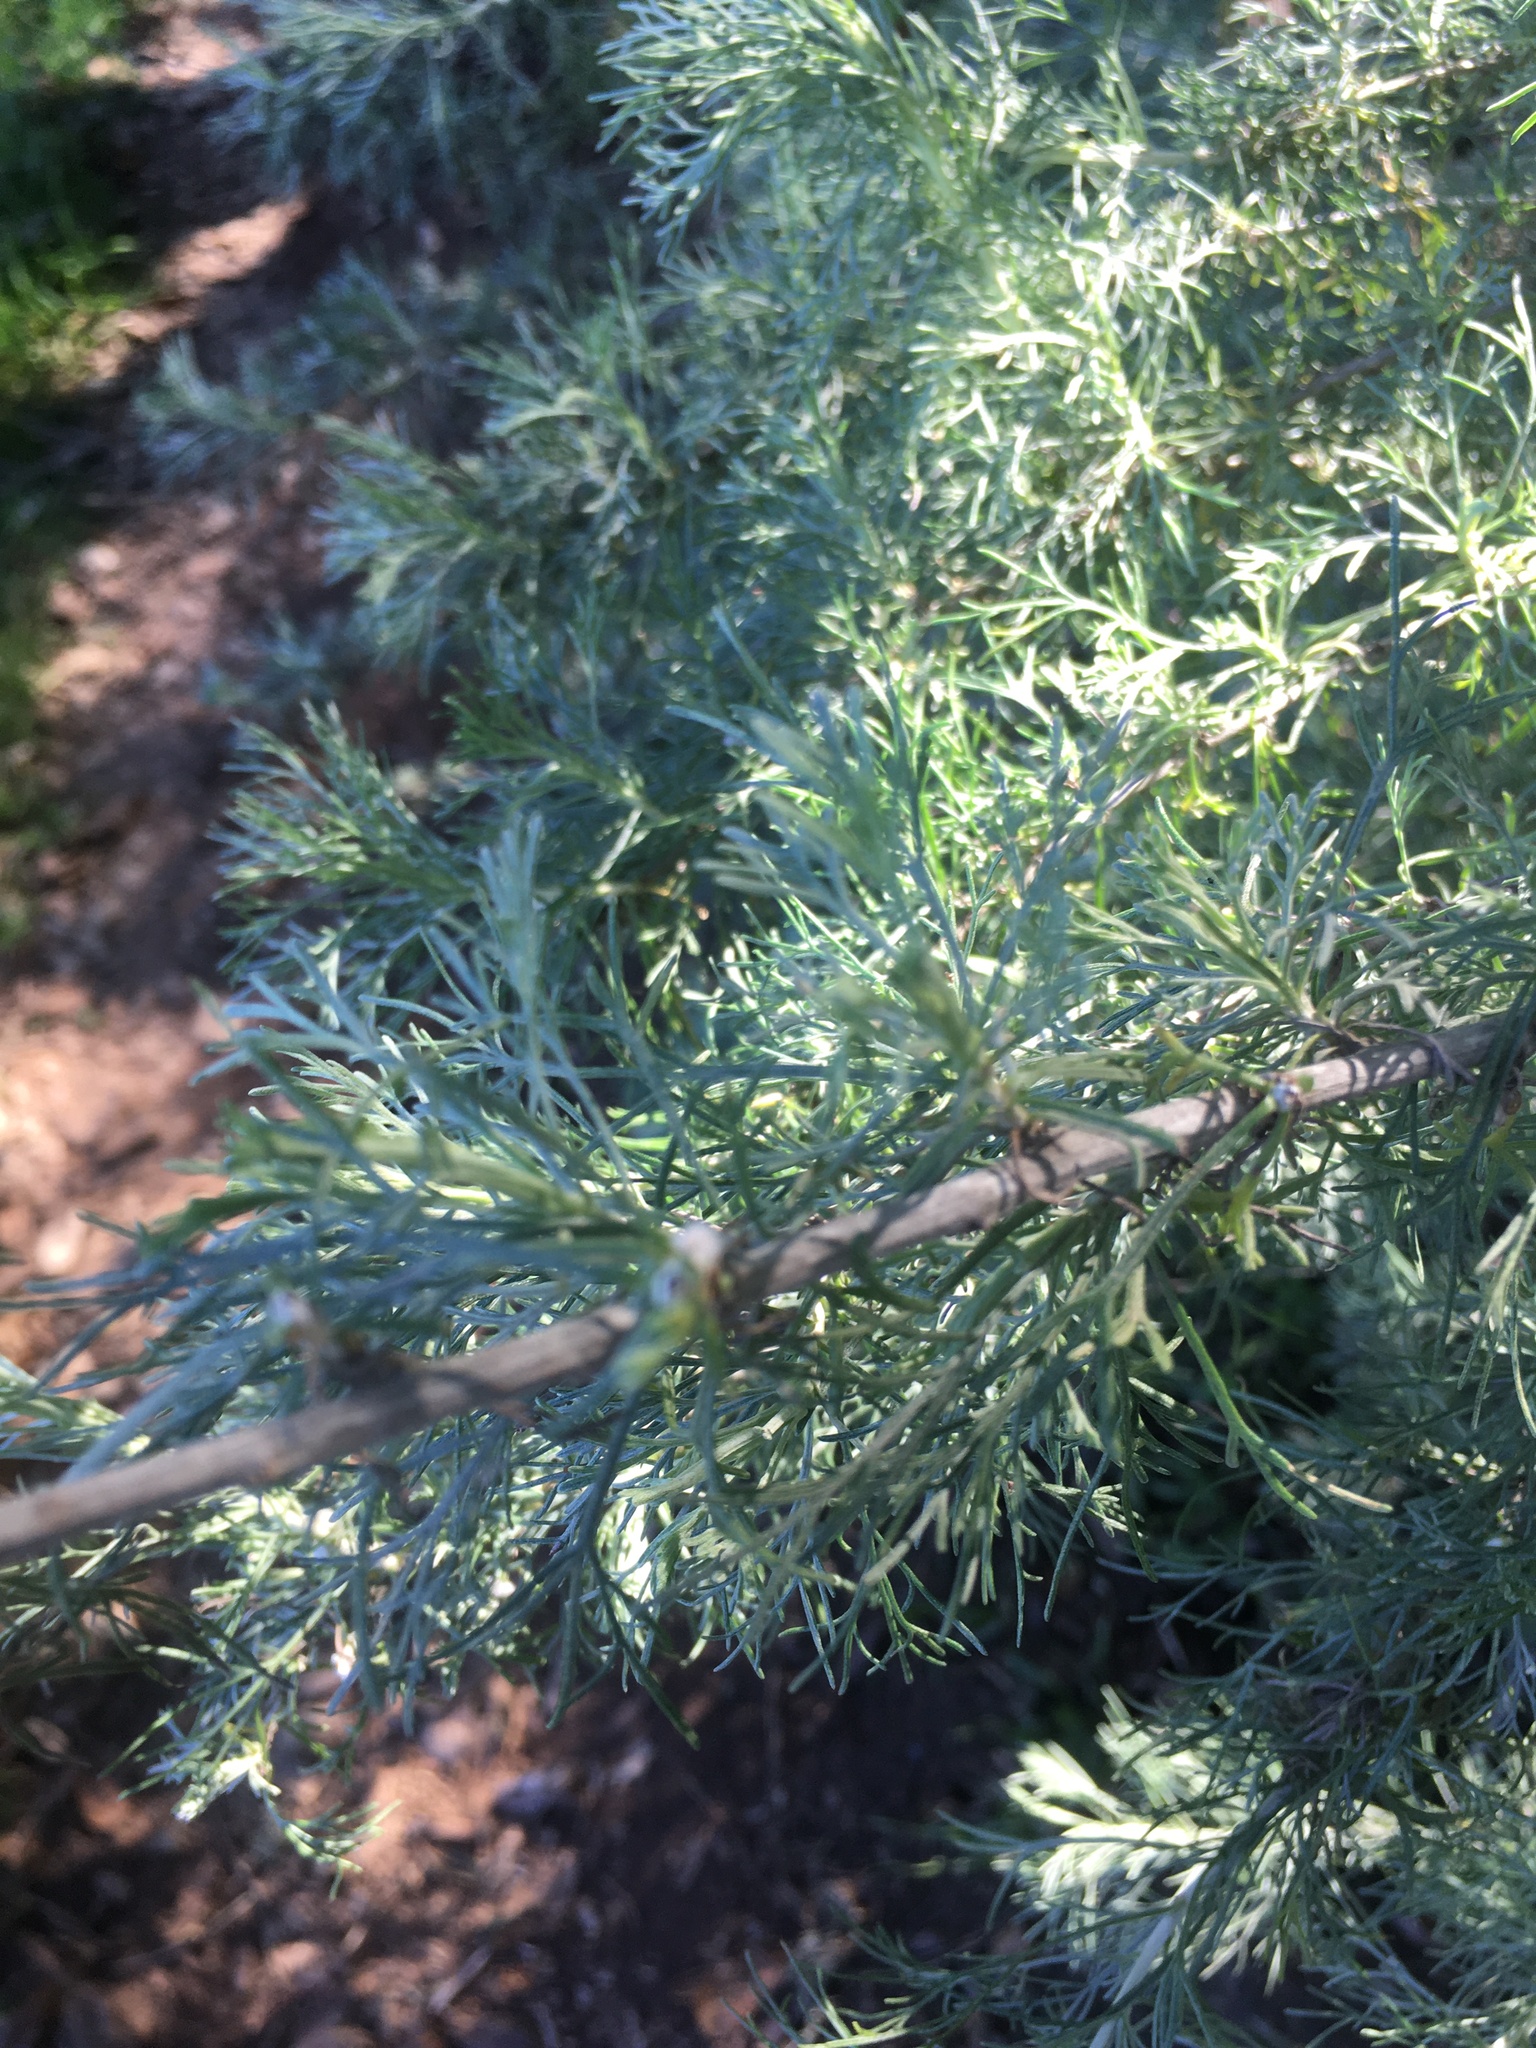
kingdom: Plantae
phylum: Tracheophyta
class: Magnoliopsida
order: Asterales
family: Asteraceae
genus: Artemisia
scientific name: Artemisia californica
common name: California sagebrush
